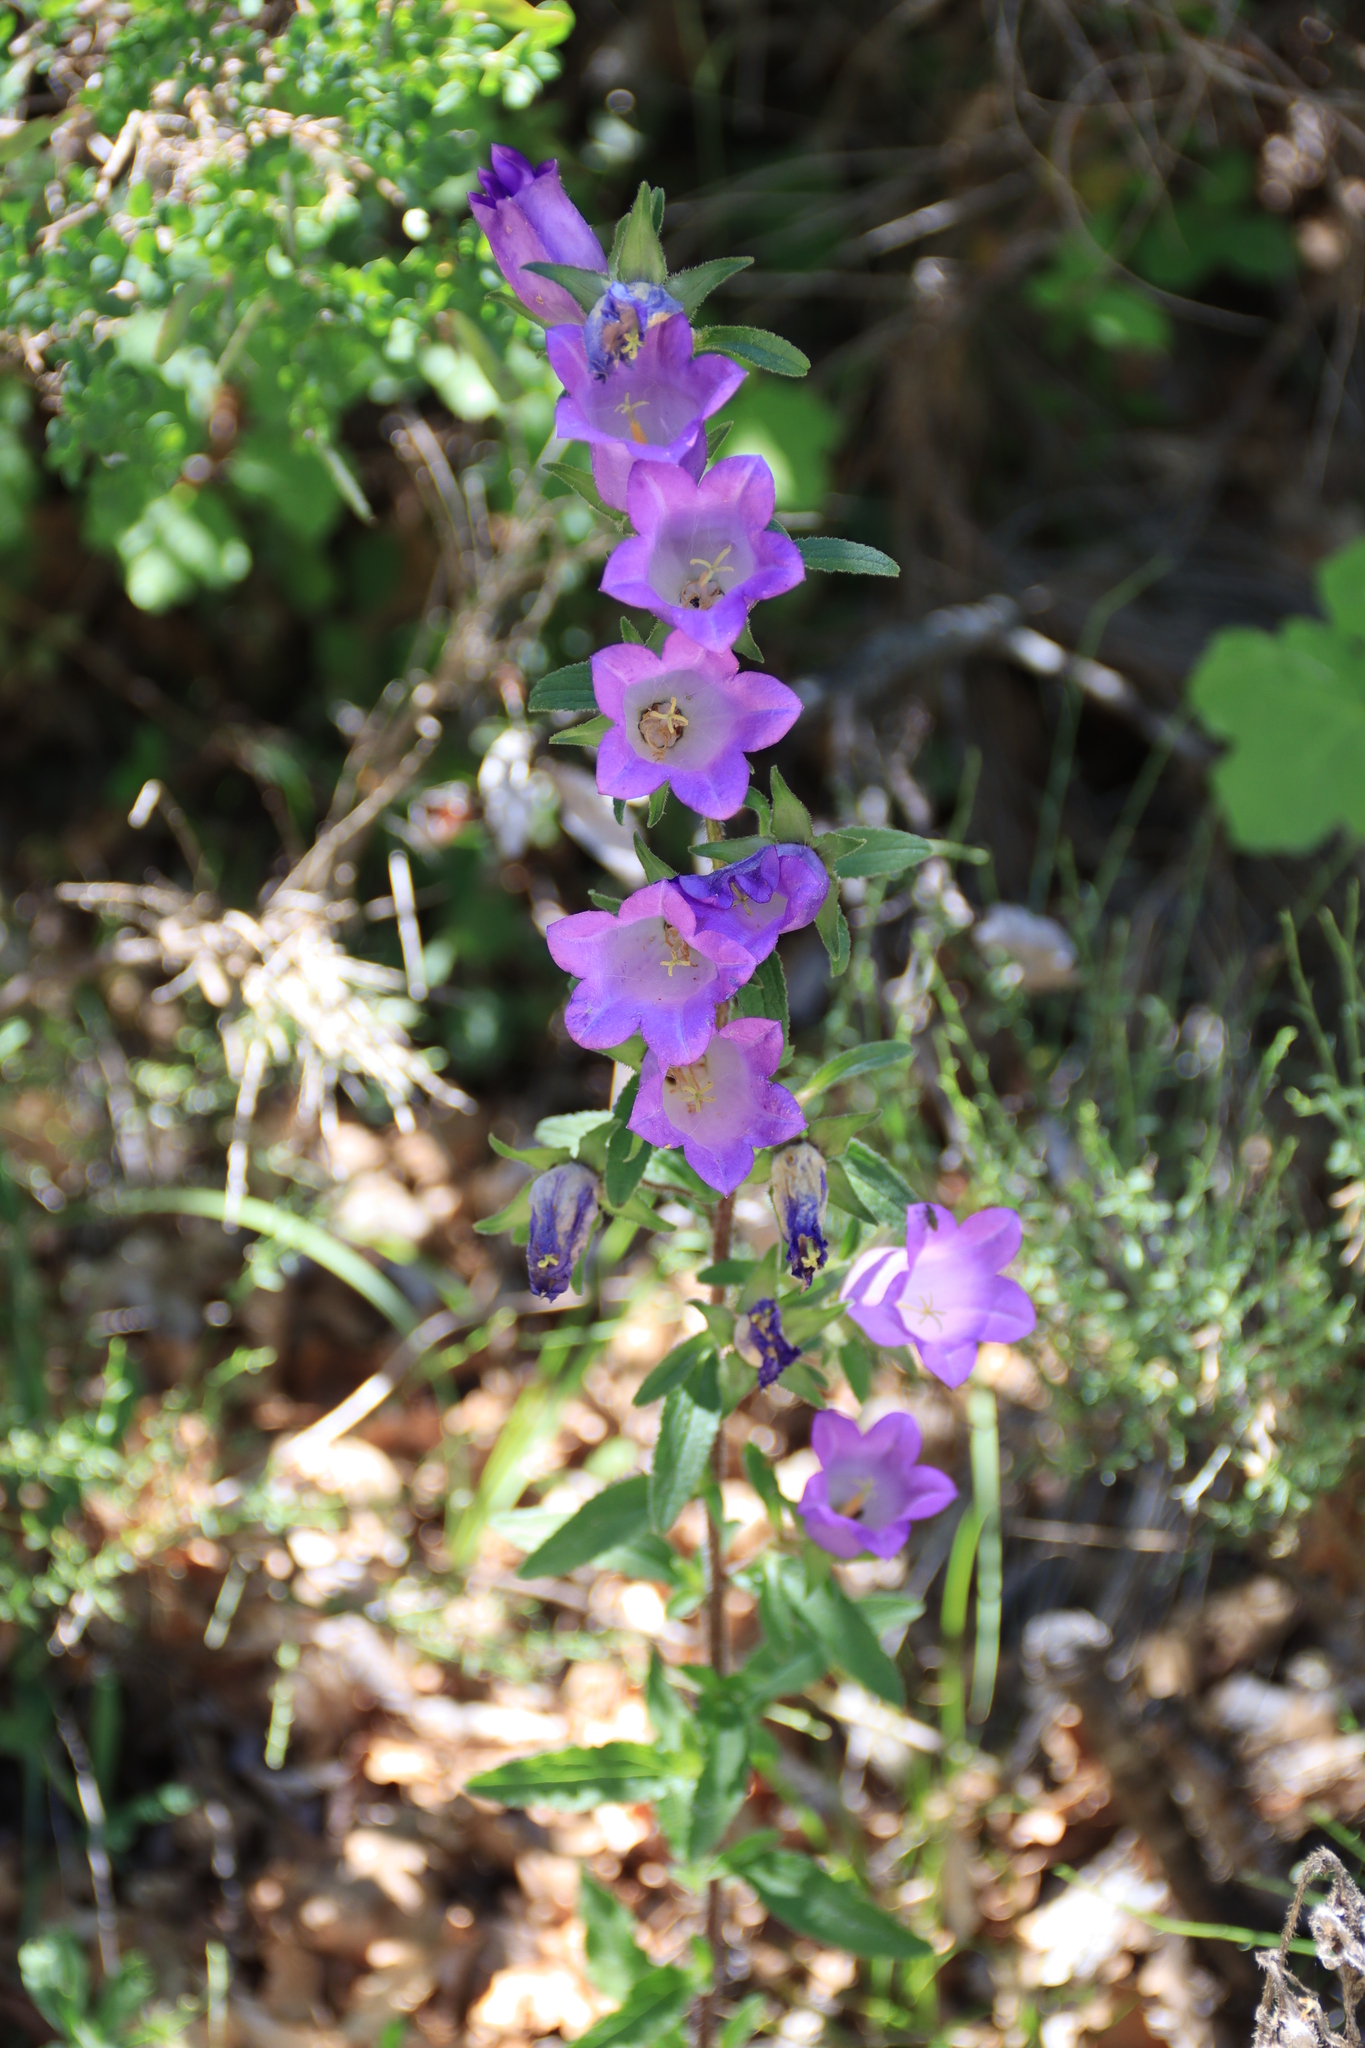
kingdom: Plantae
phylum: Tracheophyta
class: Magnoliopsida
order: Asterales
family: Campanulaceae
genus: Campanula
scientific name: Campanula medium
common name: Canterbury bells
